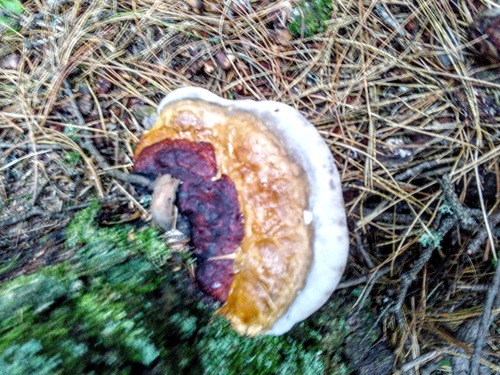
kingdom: Fungi
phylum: Basidiomycota
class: Agaricomycetes
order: Polyporales
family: Fomitopsidaceae
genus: Fomitopsis
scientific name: Fomitopsis pinicola
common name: Red-belted bracket
